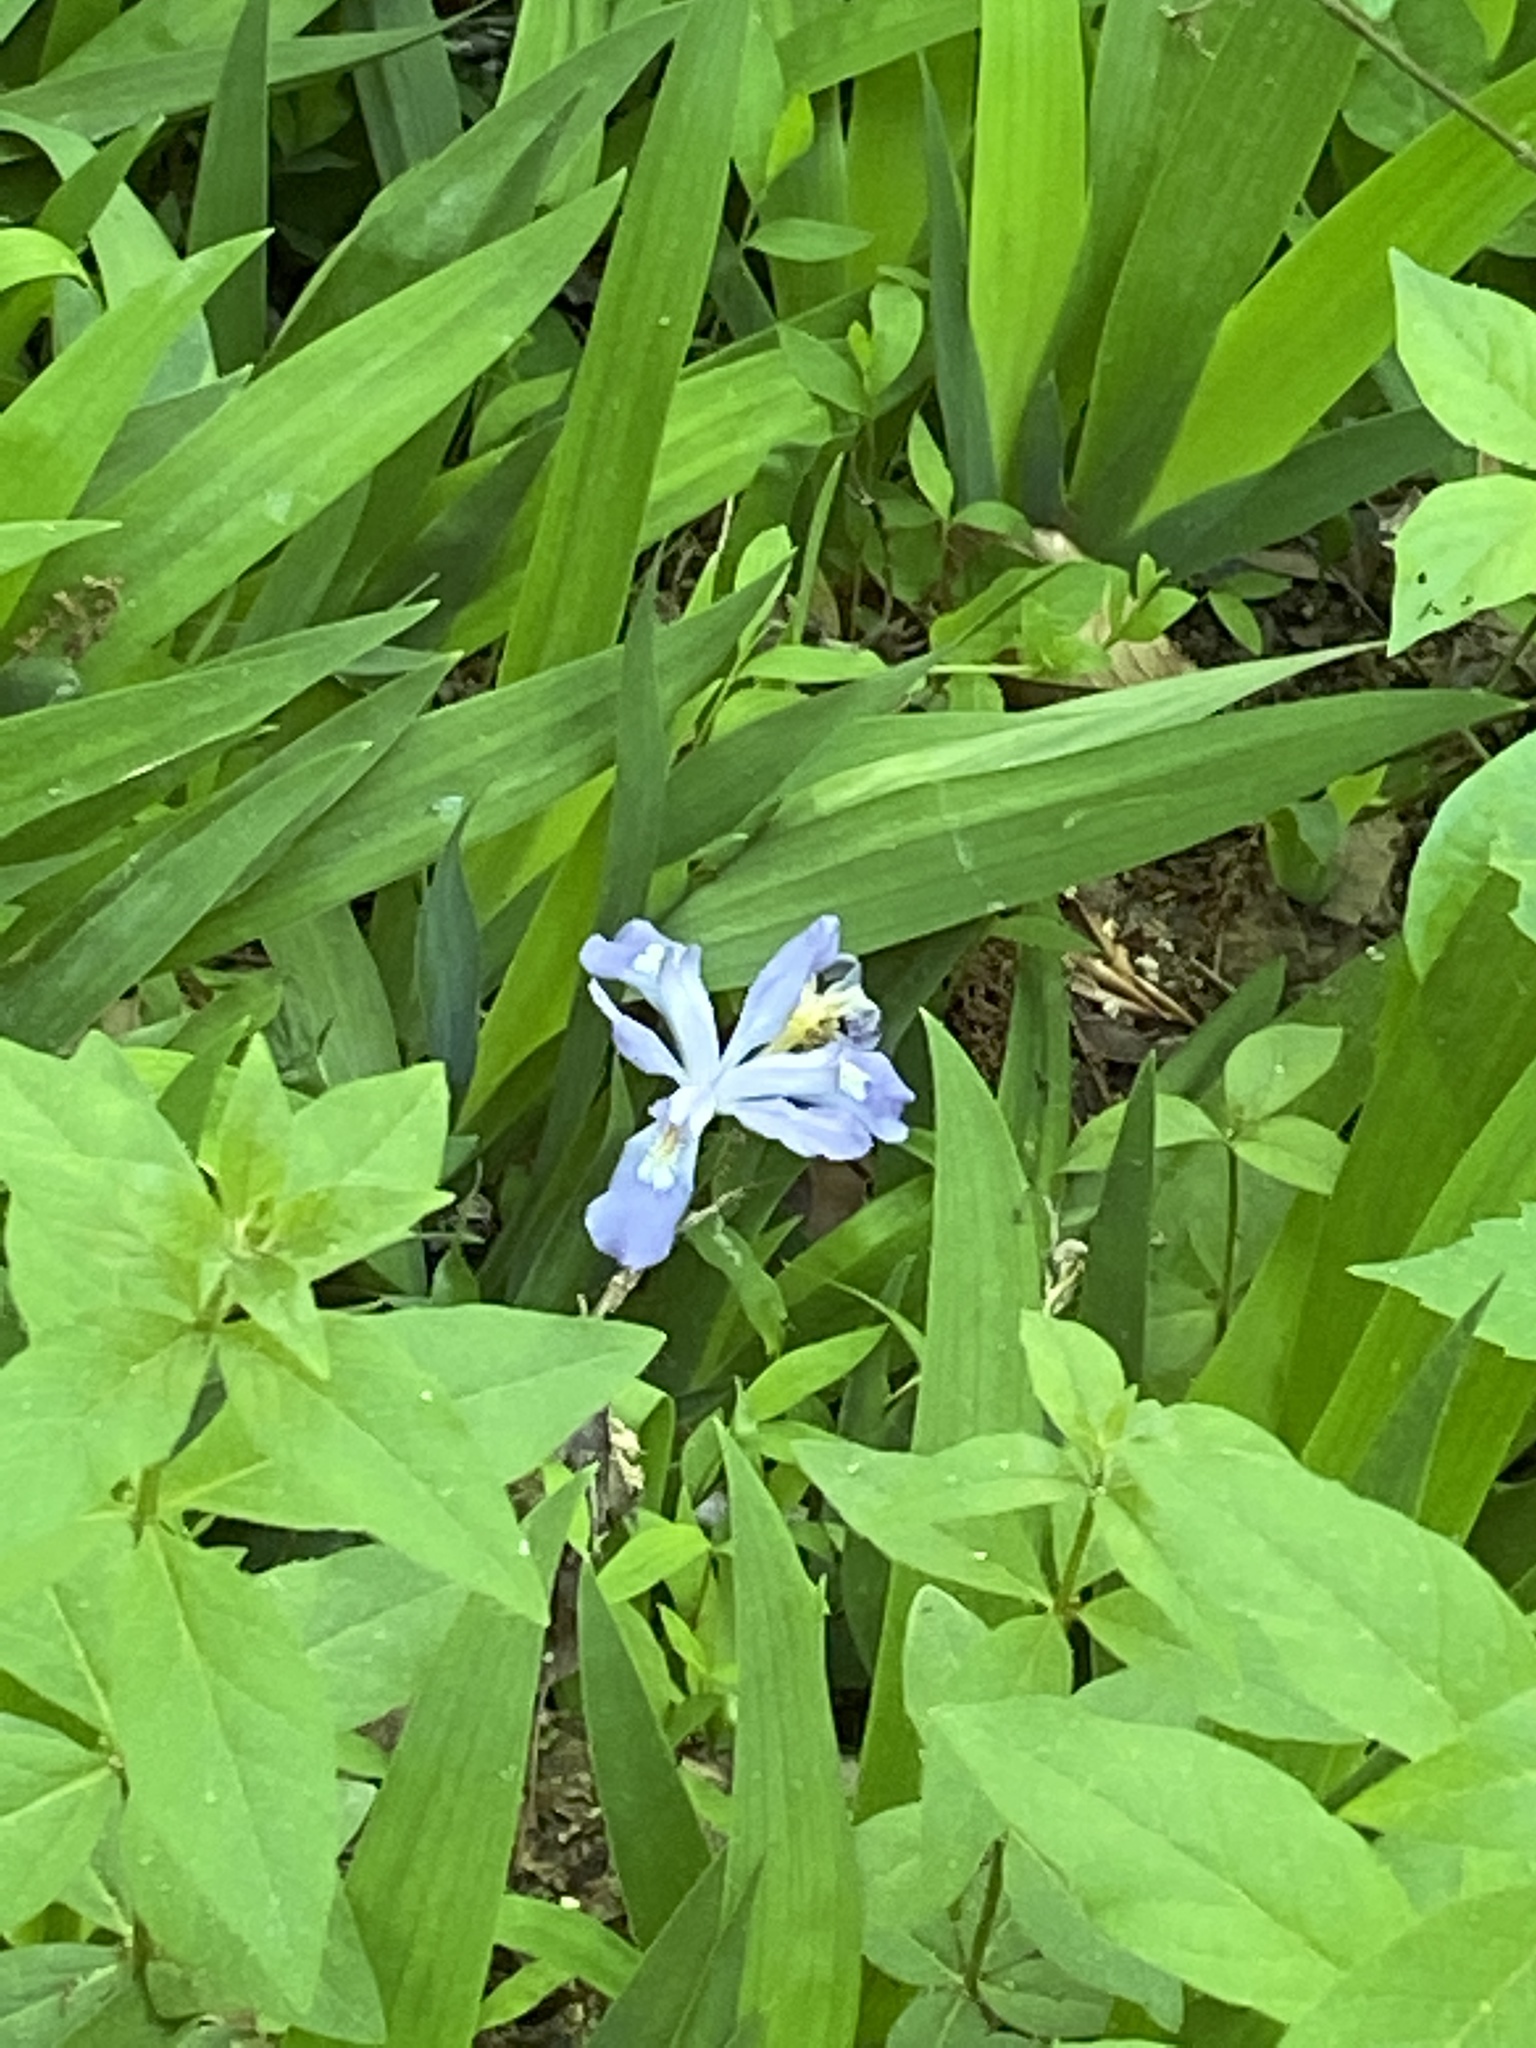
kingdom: Plantae
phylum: Tracheophyta
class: Liliopsida
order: Asparagales
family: Iridaceae
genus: Iris
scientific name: Iris cristata
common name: Crested iris
